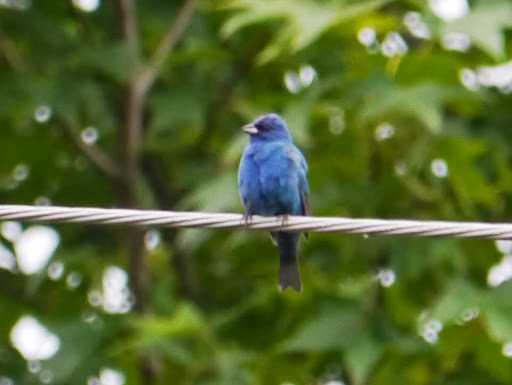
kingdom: Animalia
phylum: Chordata
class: Aves
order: Passeriformes
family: Cardinalidae
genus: Passerina
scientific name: Passerina cyanea
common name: Indigo bunting
